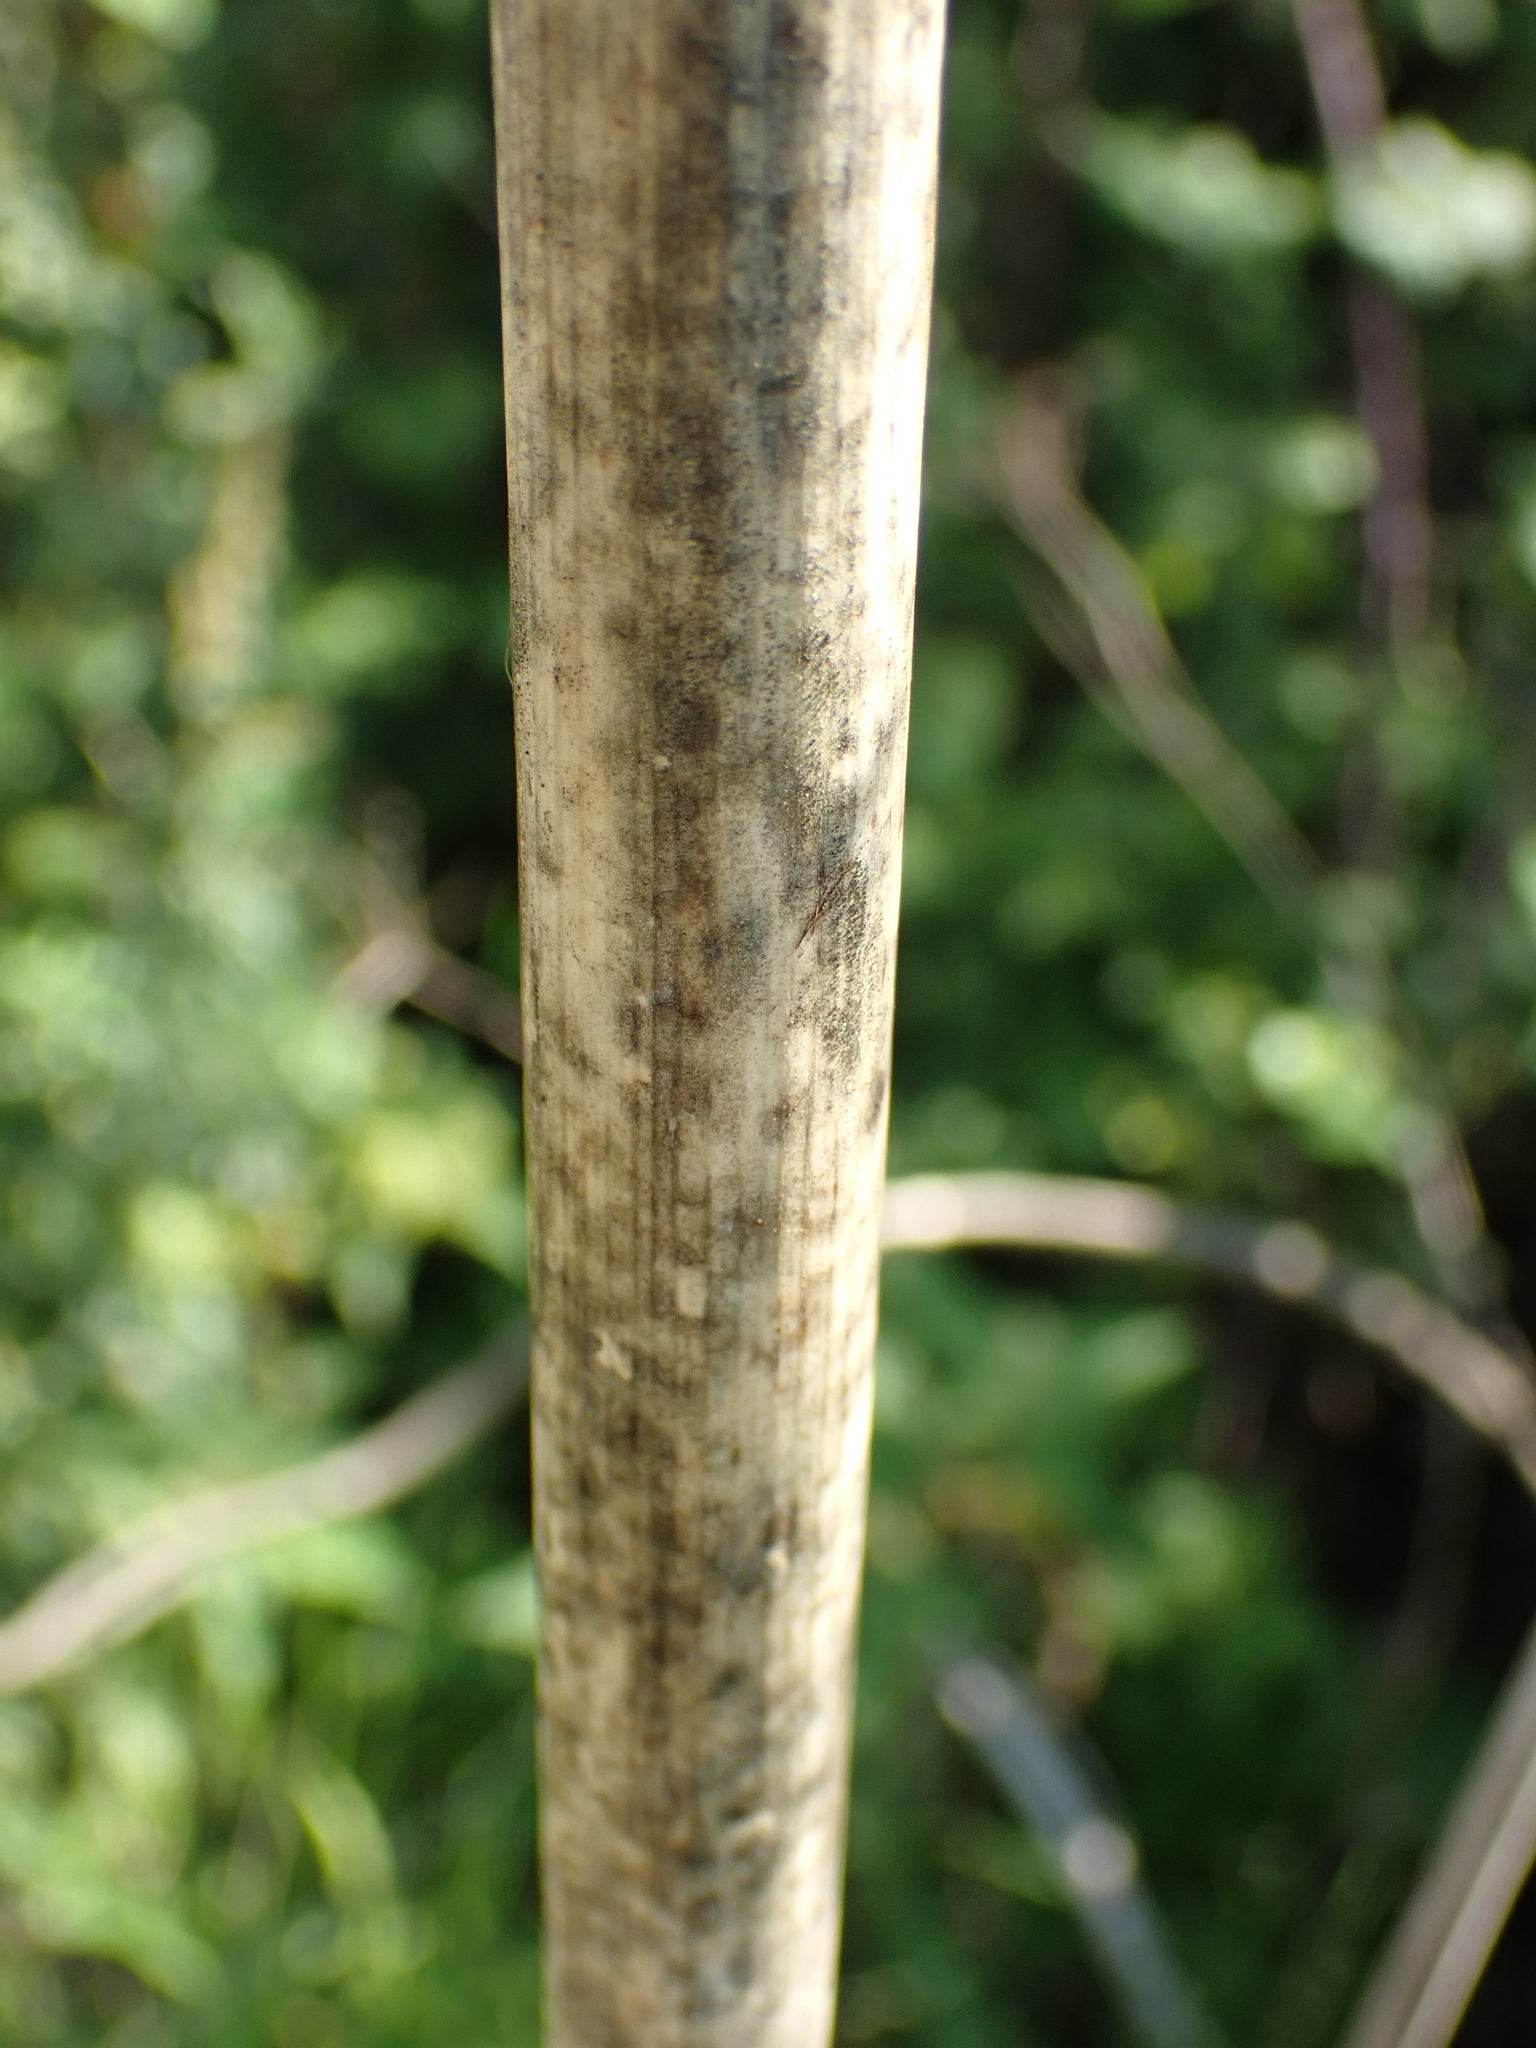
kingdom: Plantae
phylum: Tracheophyta
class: Magnoliopsida
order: Apiales
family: Apiaceae
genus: Conium
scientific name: Conium maculatum
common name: Hemlock
